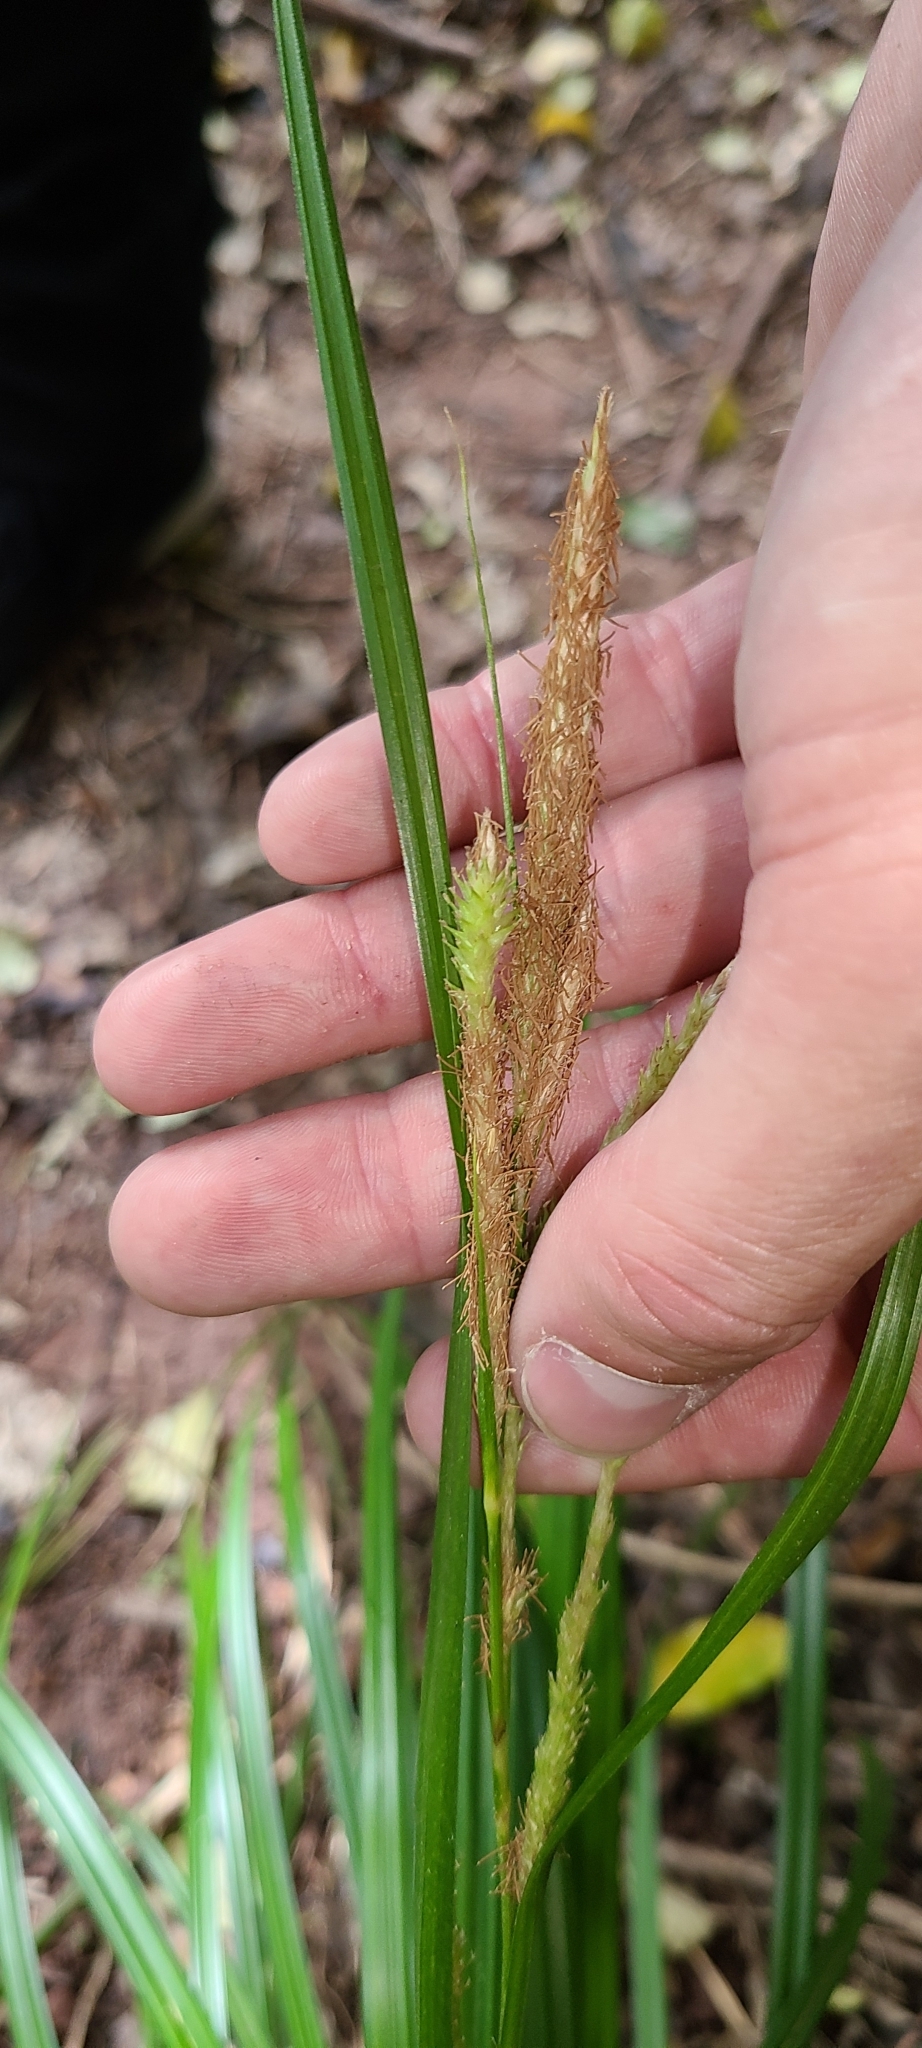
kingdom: Plantae
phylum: Tracheophyta
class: Liliopsida
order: Poales
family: Cyperaceae
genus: Carex
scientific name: Carex forsteri
